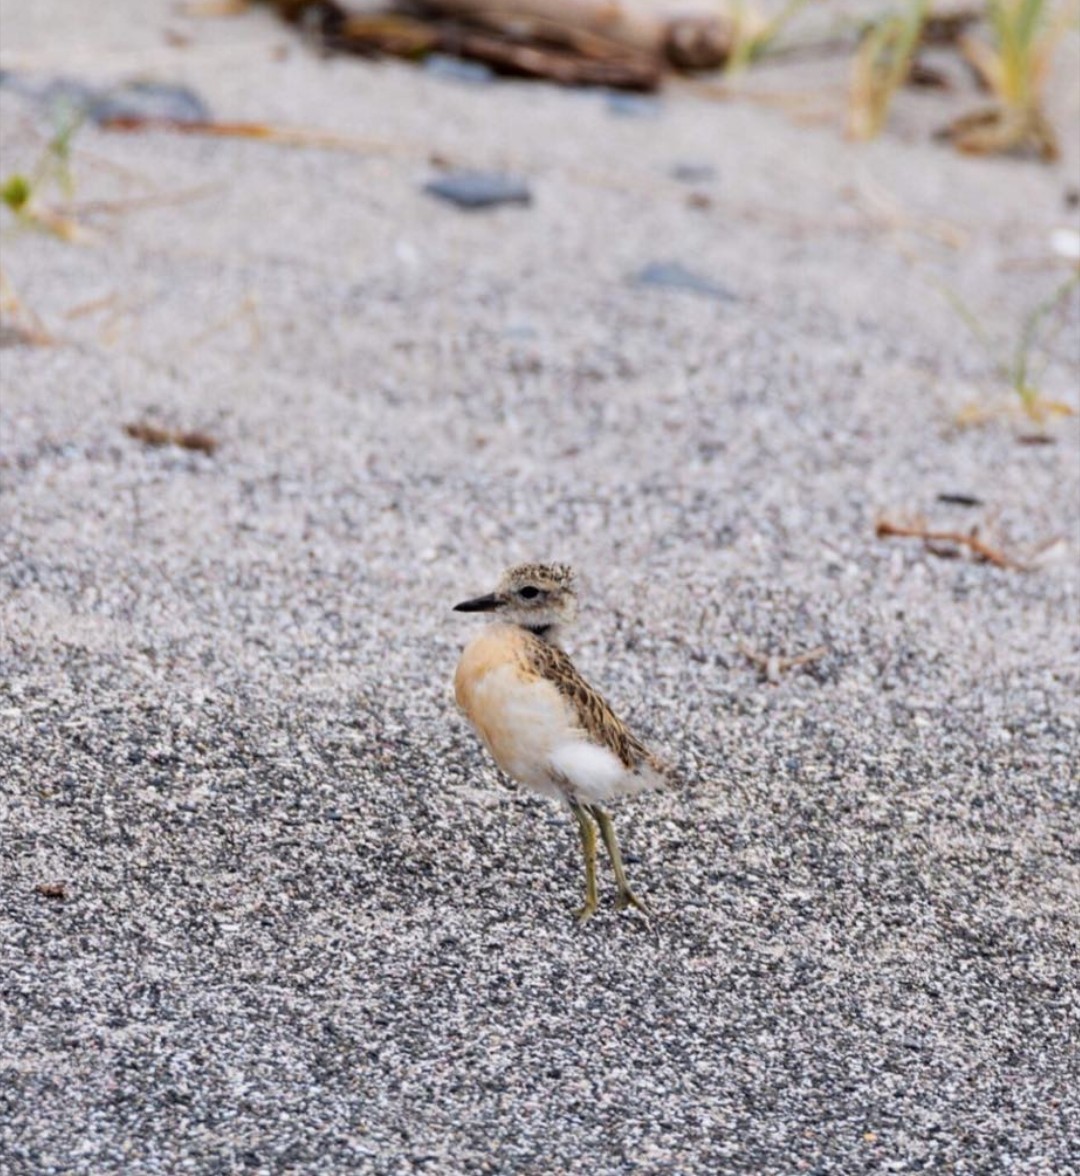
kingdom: Animalia
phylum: Chordata
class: Aves
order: Charadriiformes
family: Charadriidae
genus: Anarhynchus
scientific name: Anarhynchus
